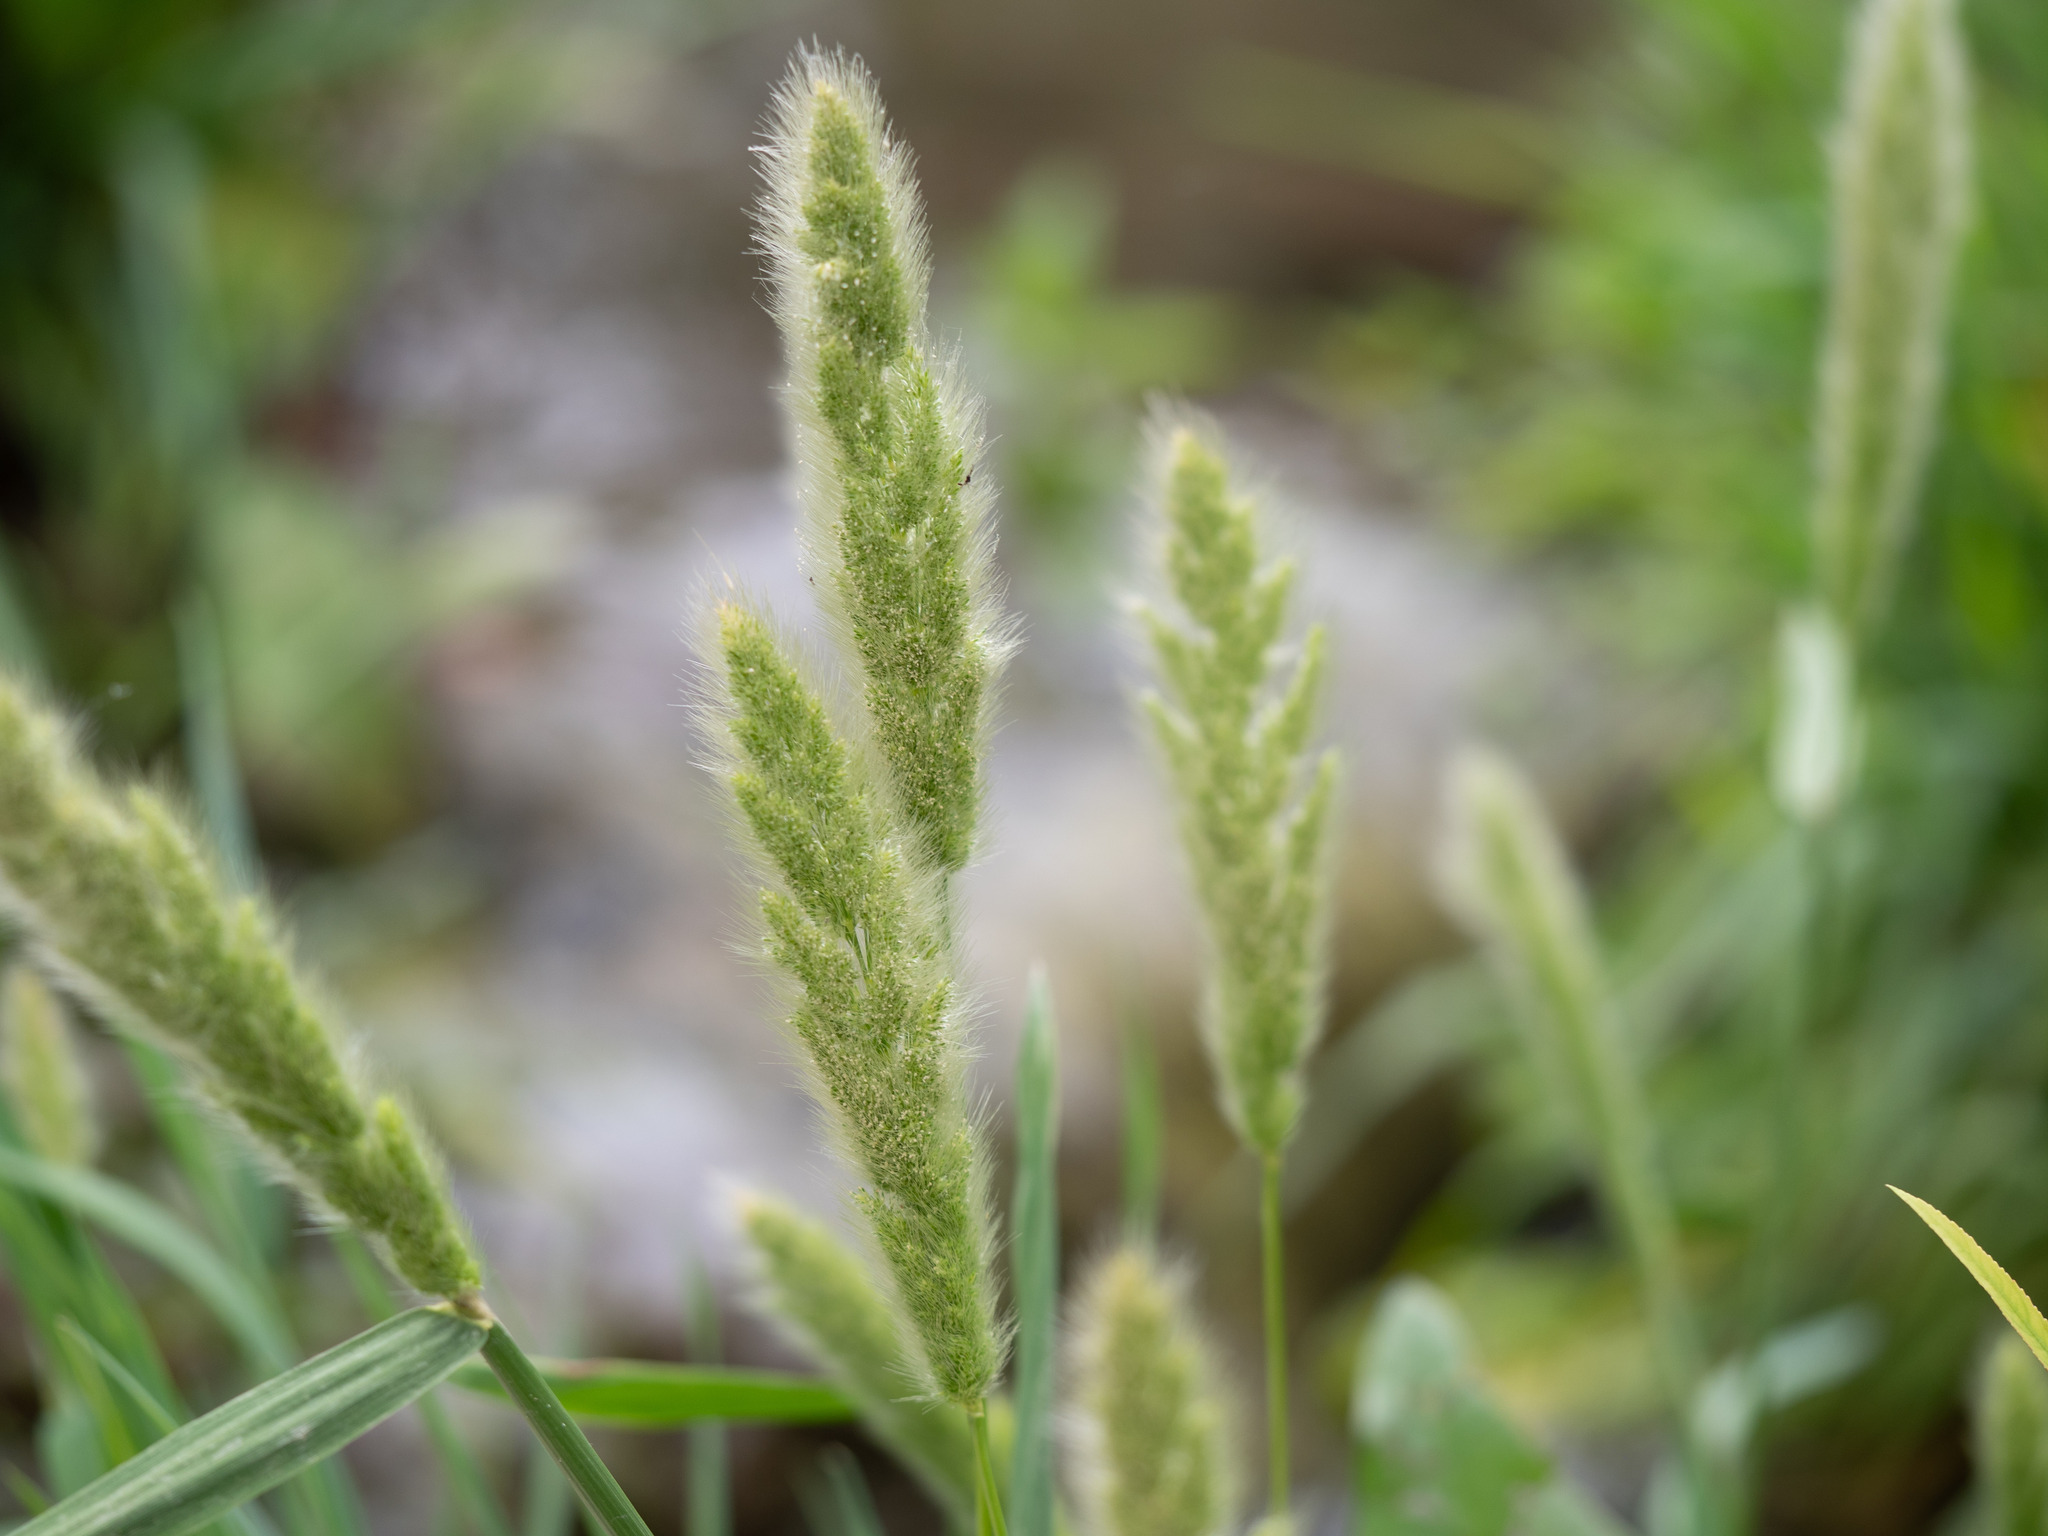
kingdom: Plantae
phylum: Tracheophyta
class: Liliopsida
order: Poales
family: Poaceae
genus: Polypogon
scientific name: Polypogon monspeliensis
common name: Annual rabbitsfoot grass
